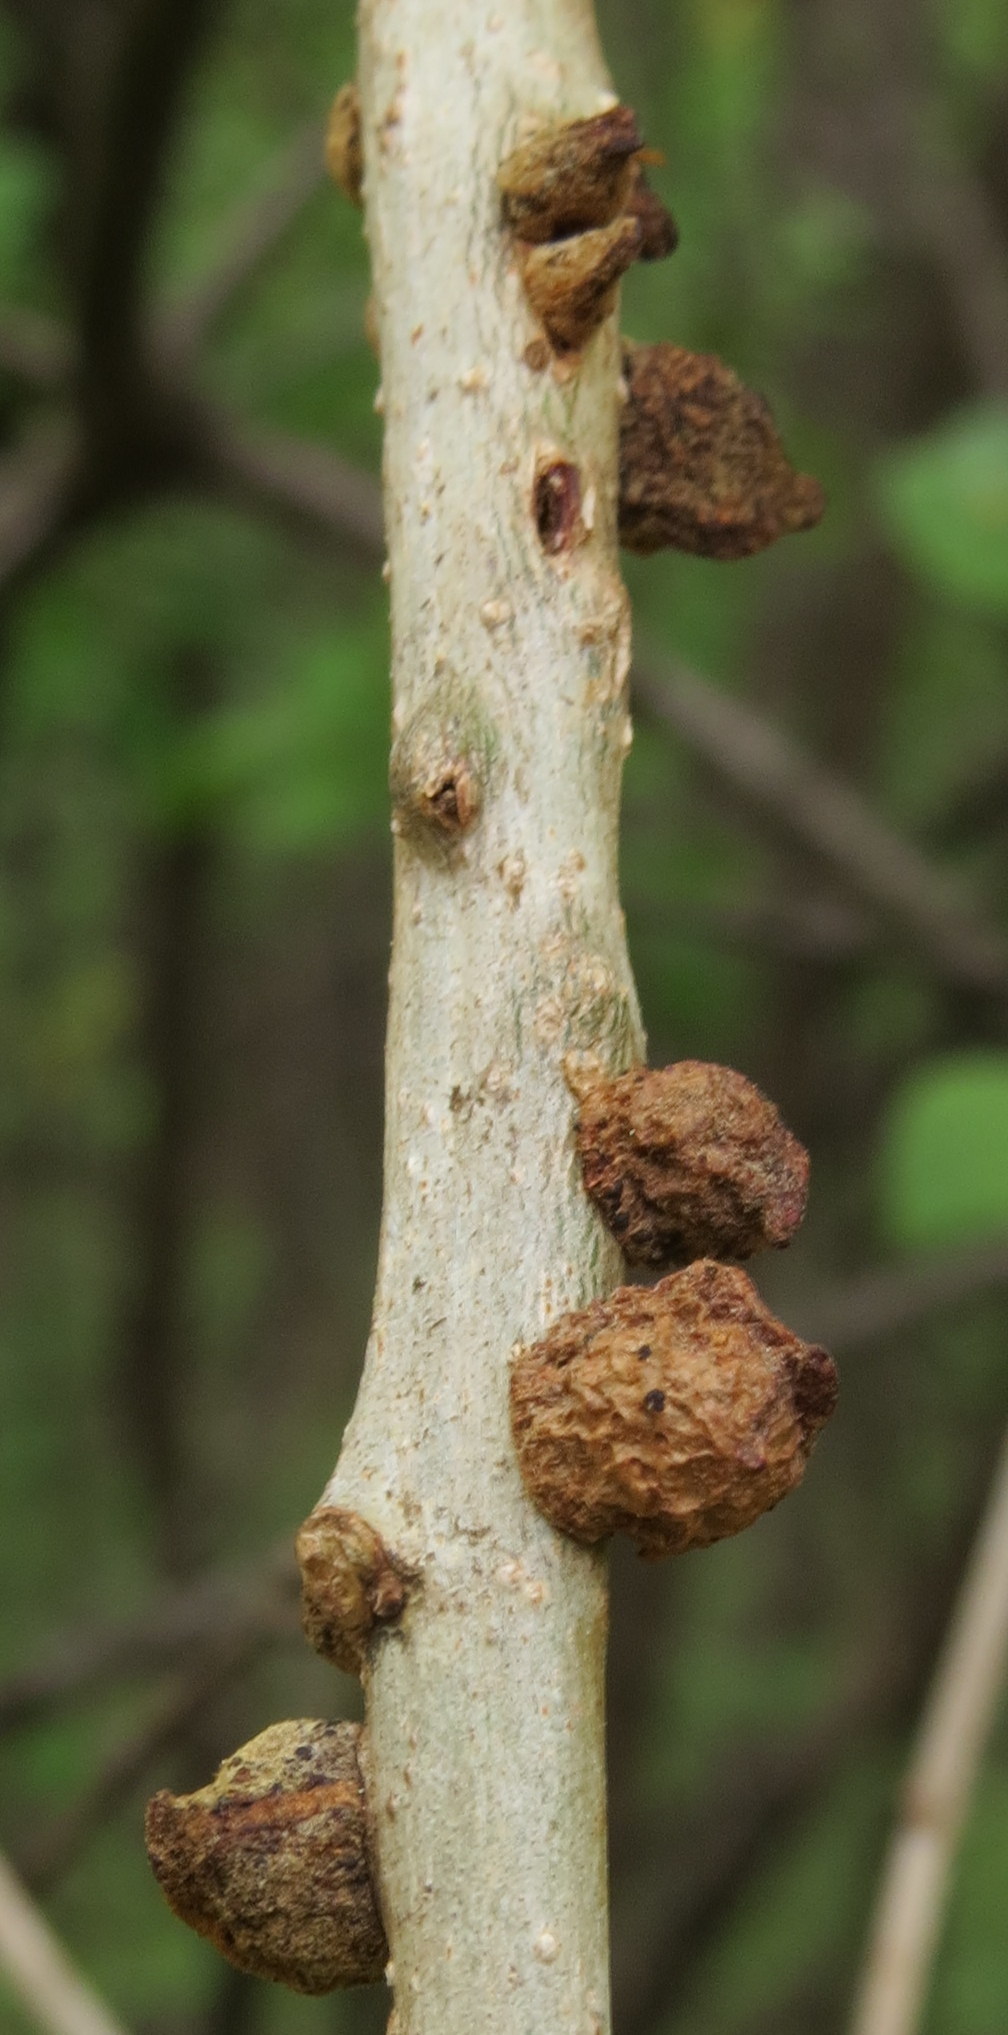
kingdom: Animalia
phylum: Arthropoda
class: Insecta
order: Hymenoptera
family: Cynipidae
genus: Disholcaspis
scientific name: Disholcaspis
